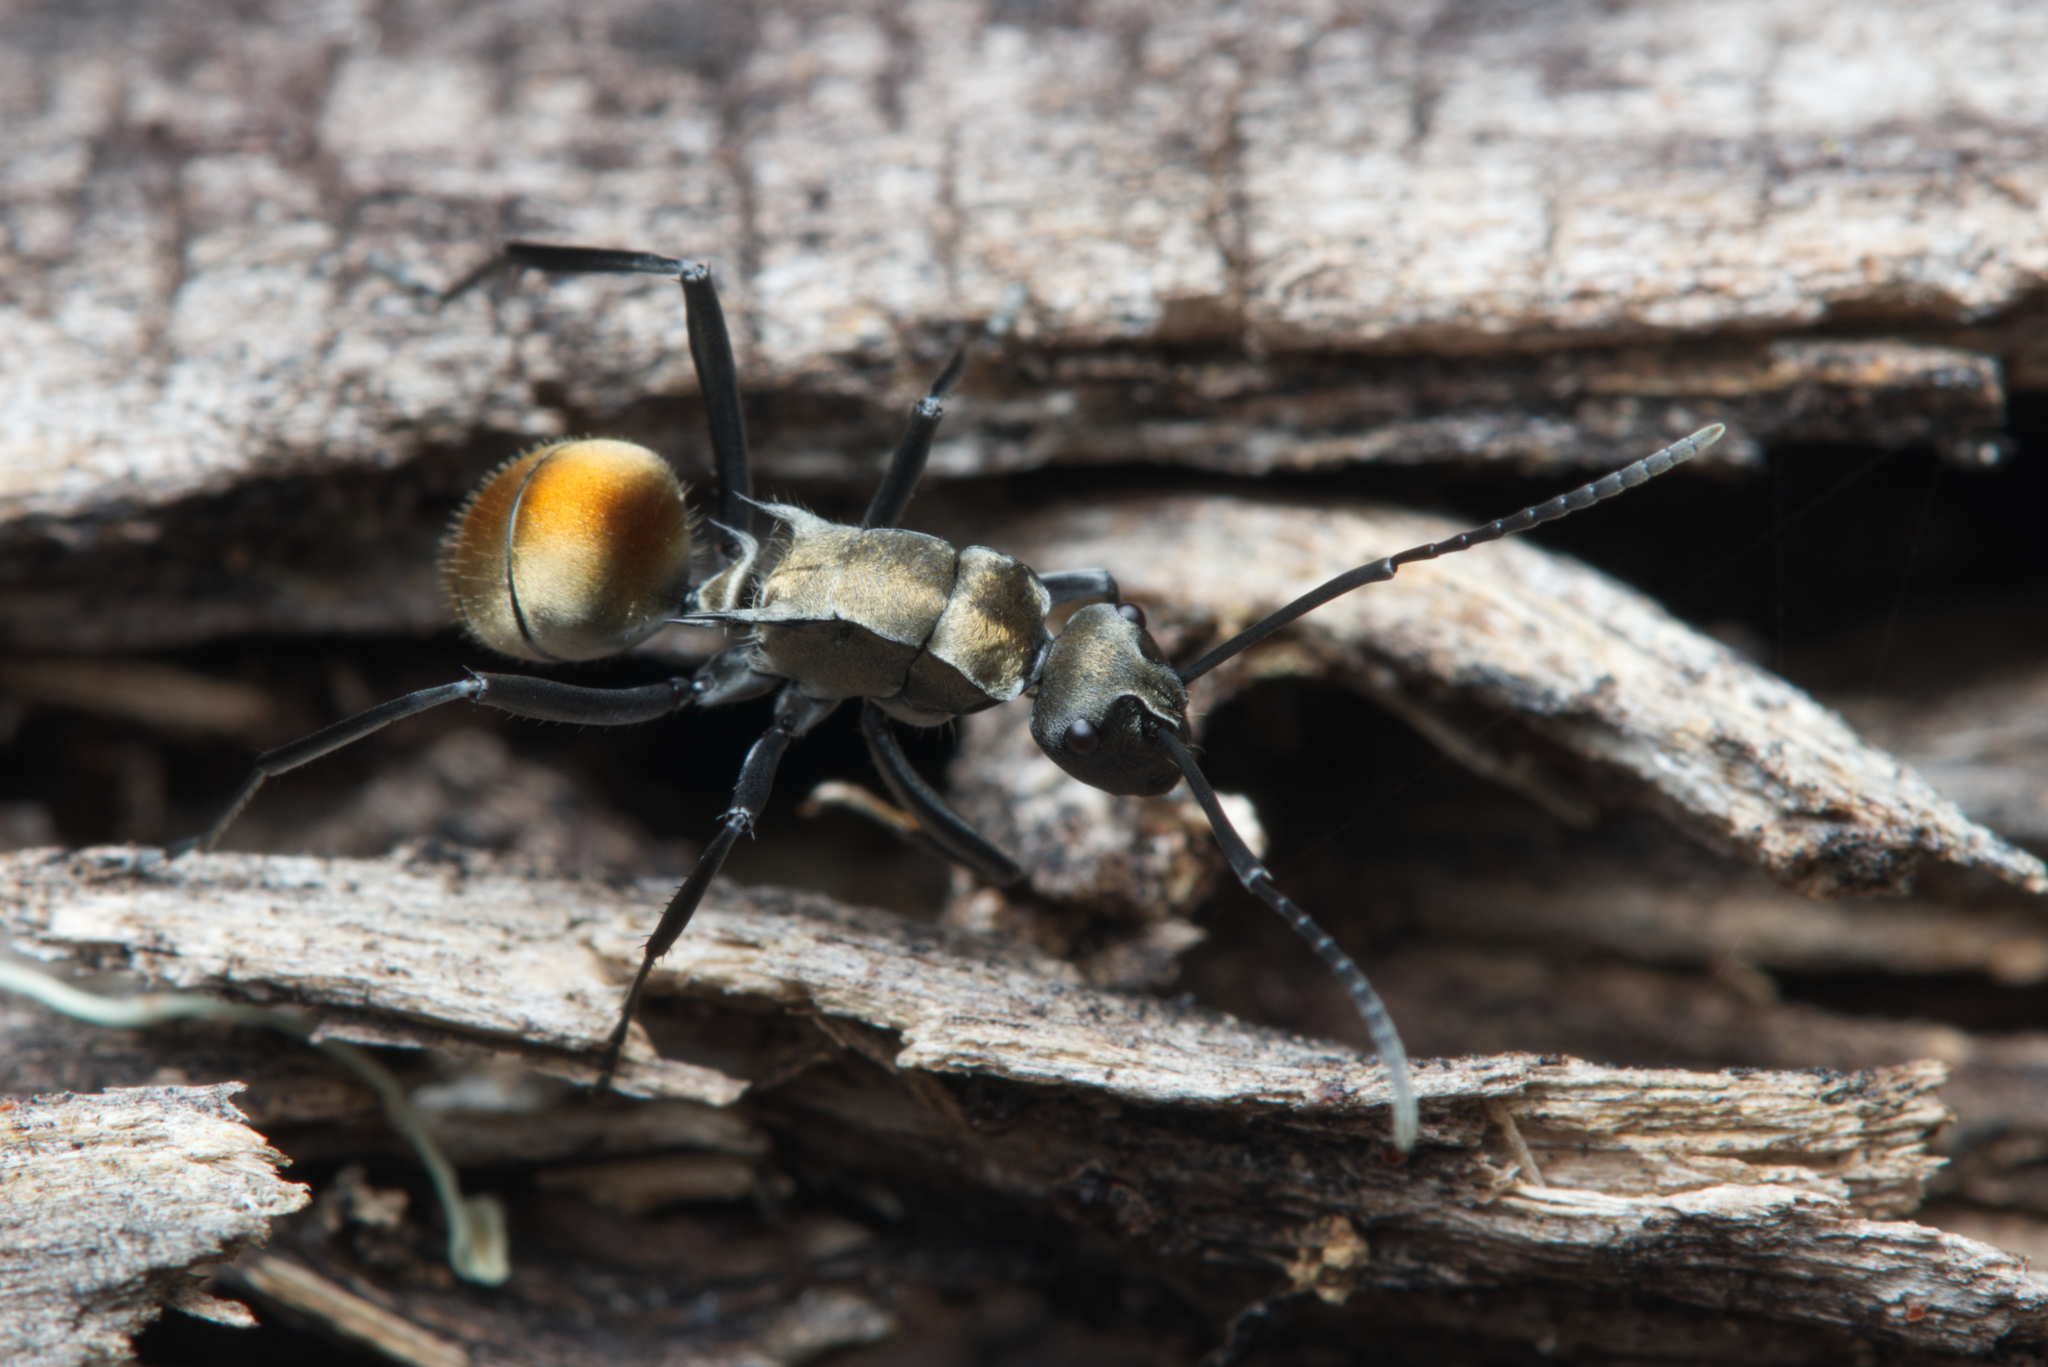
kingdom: Animalia
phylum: Arthropoda
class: Insecta
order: Hymenoptera
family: Formicidae
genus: Polyrhachis
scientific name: Polyrhachis ammon
